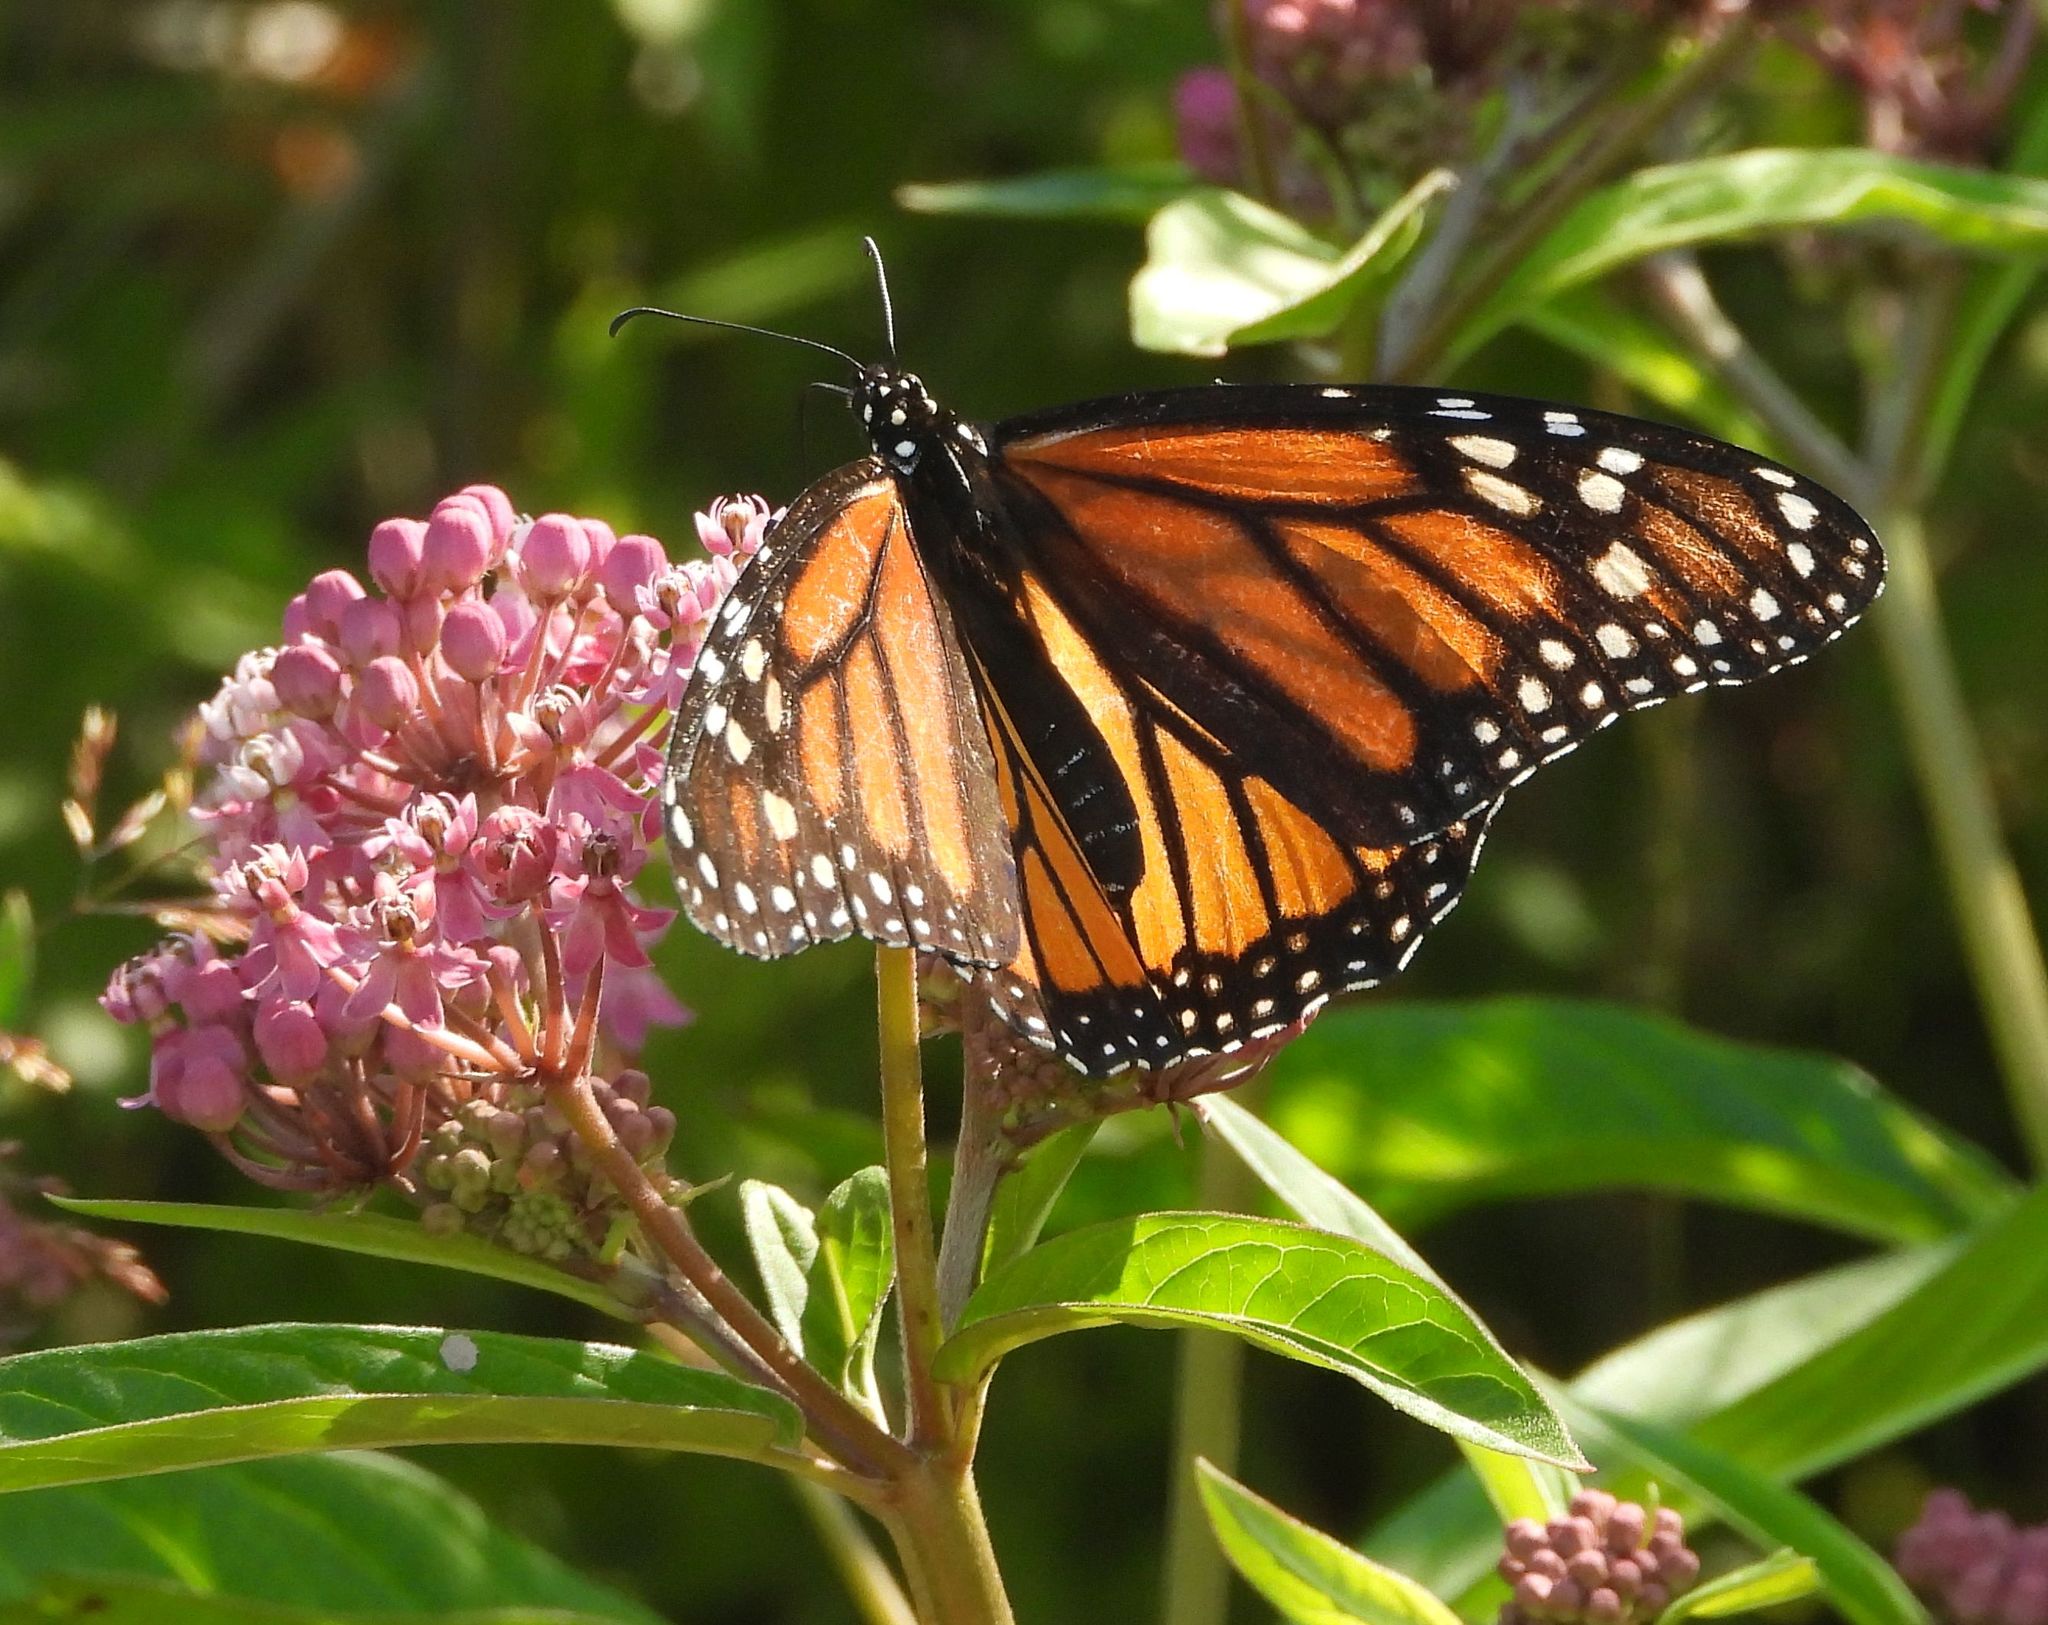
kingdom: Animalia
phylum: Arthropoda
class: Insecta
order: Lepidoptera
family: Nymphalidae
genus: Danaus
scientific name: Danaus plexippus
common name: Monarch
